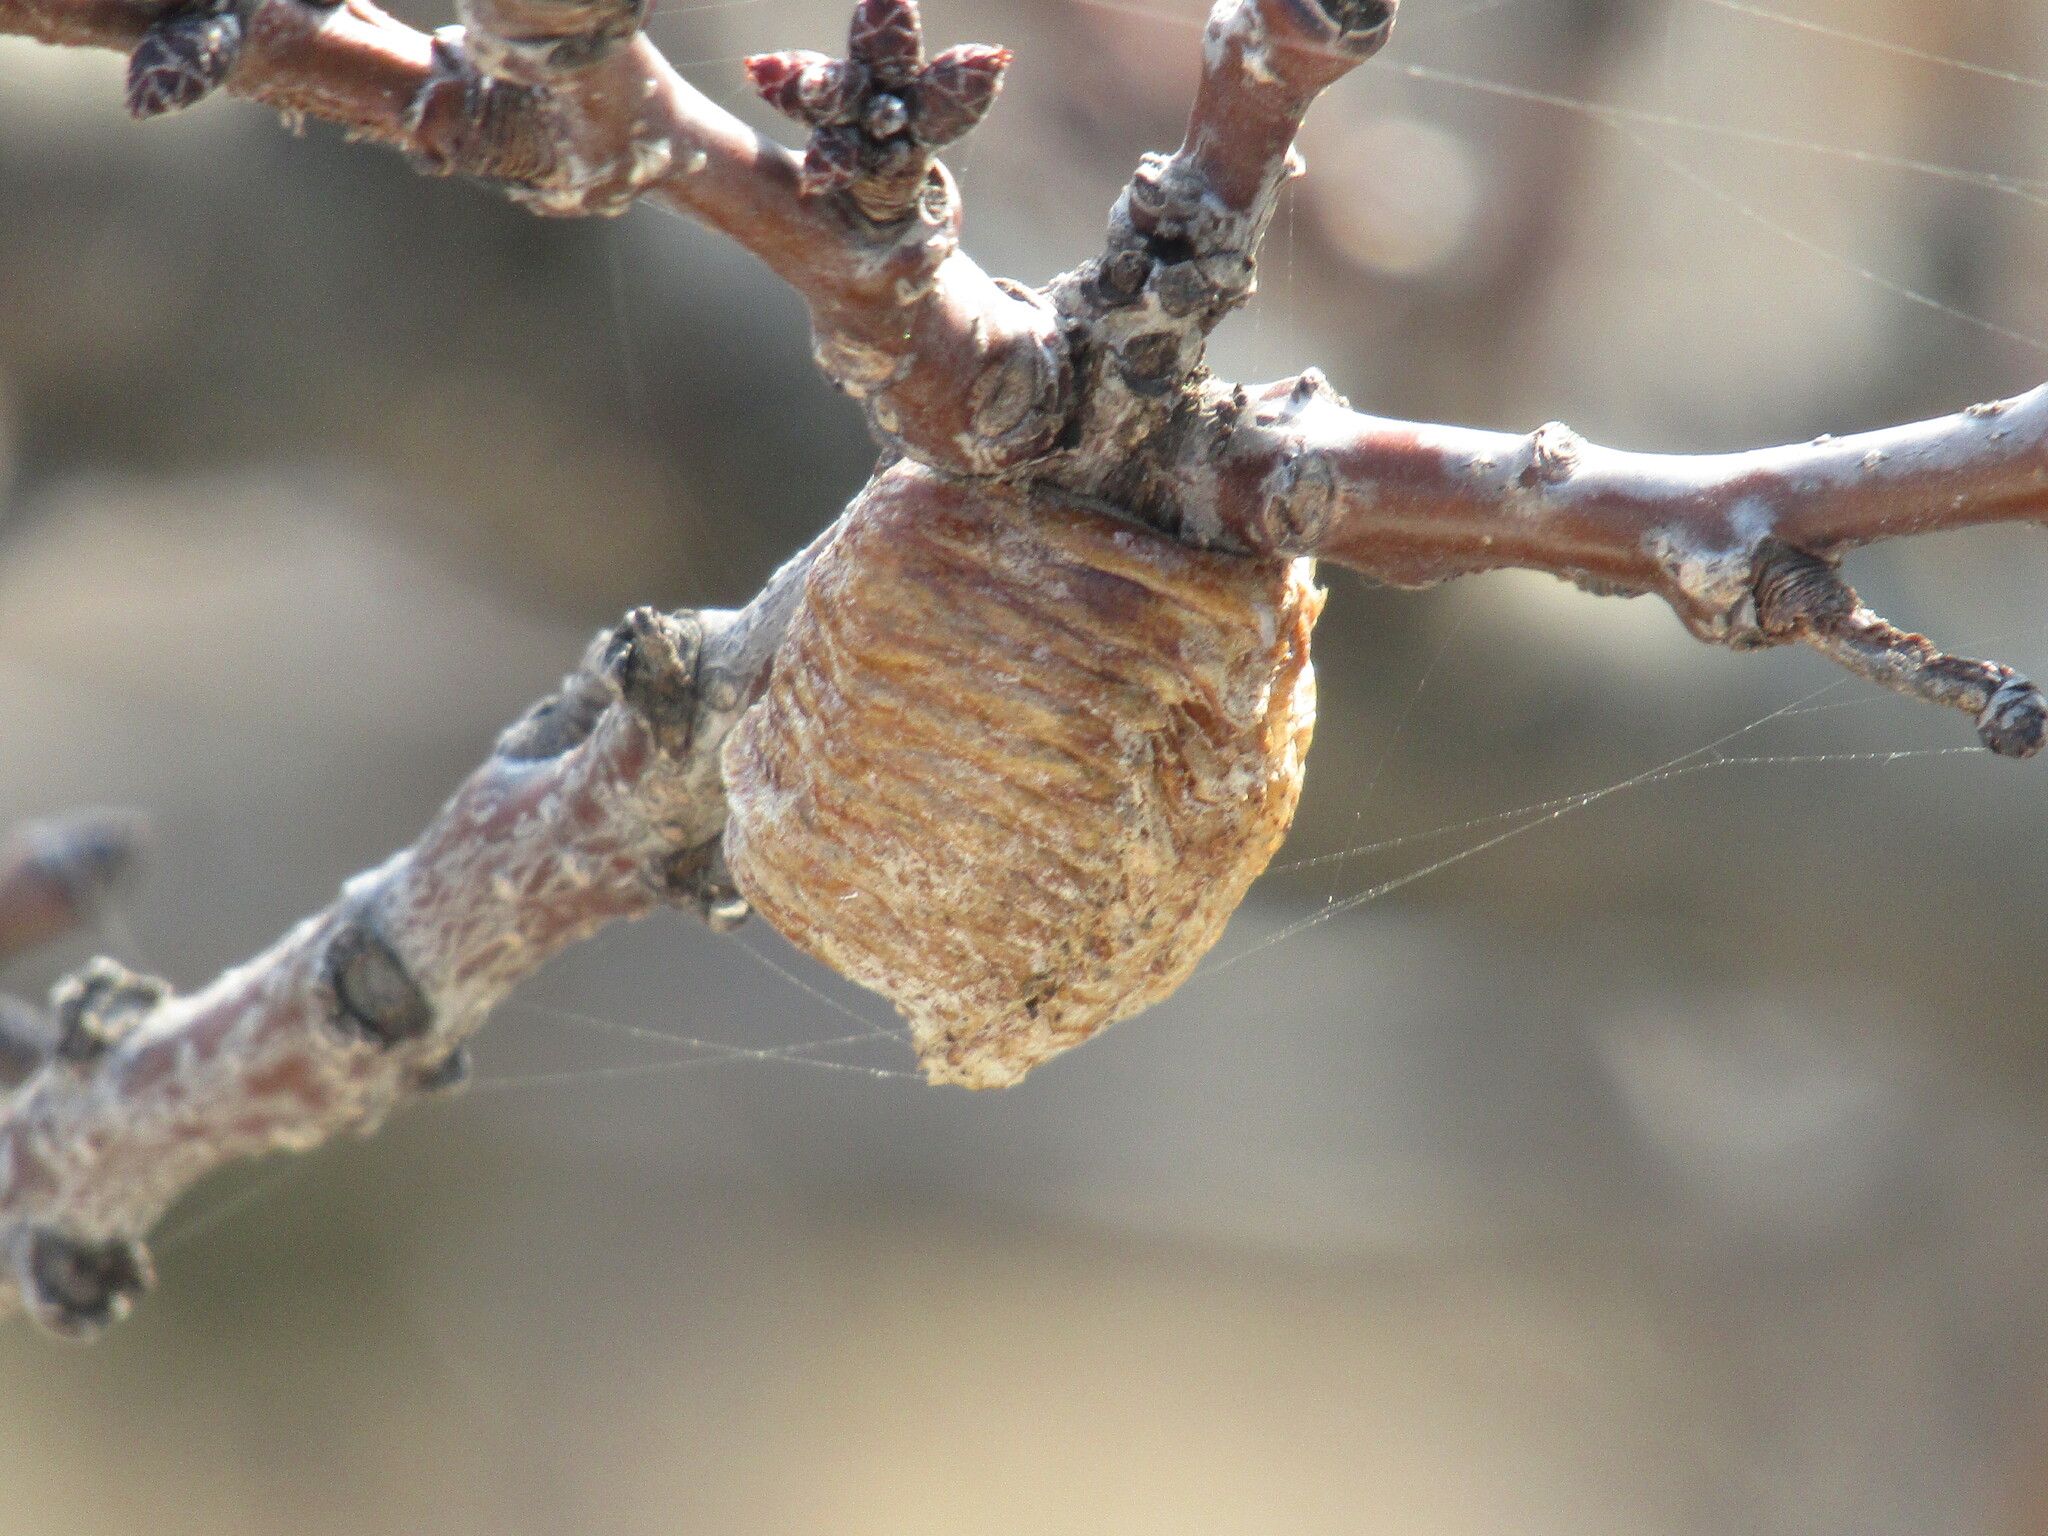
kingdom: Animalia
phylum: Arthropoda
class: Insecta
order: Mantodea
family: Mantidae
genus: Hierodula
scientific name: Hierodula transcaucasica
